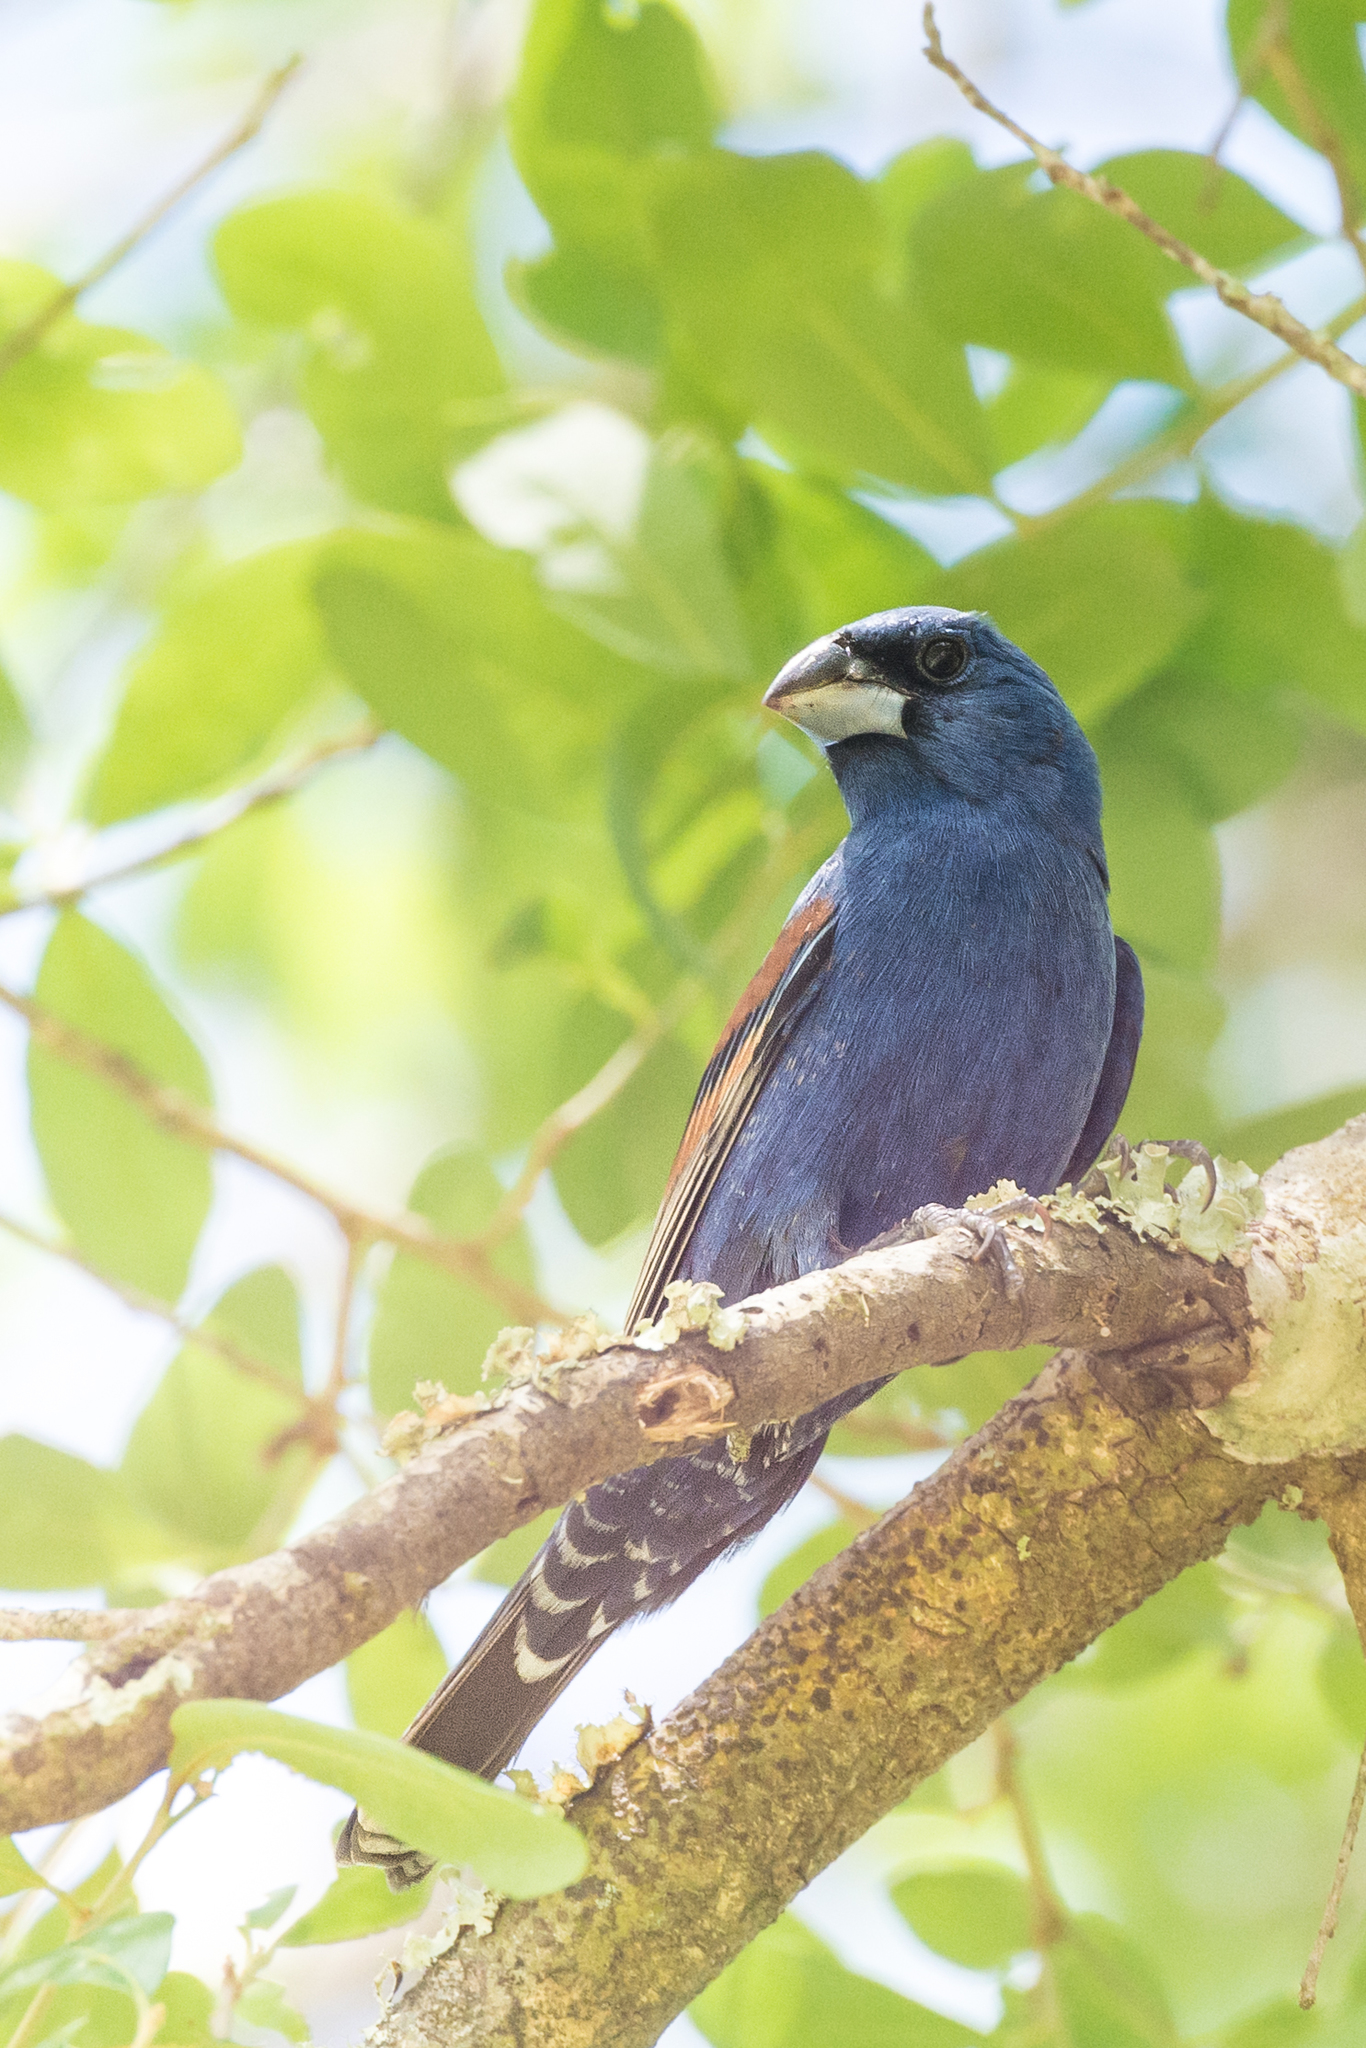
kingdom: Animalia
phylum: Chordata
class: Aves
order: Passeriformes
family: Cardinalidae
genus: Passerina
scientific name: Passerina caerulea
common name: Blue grosbeak
